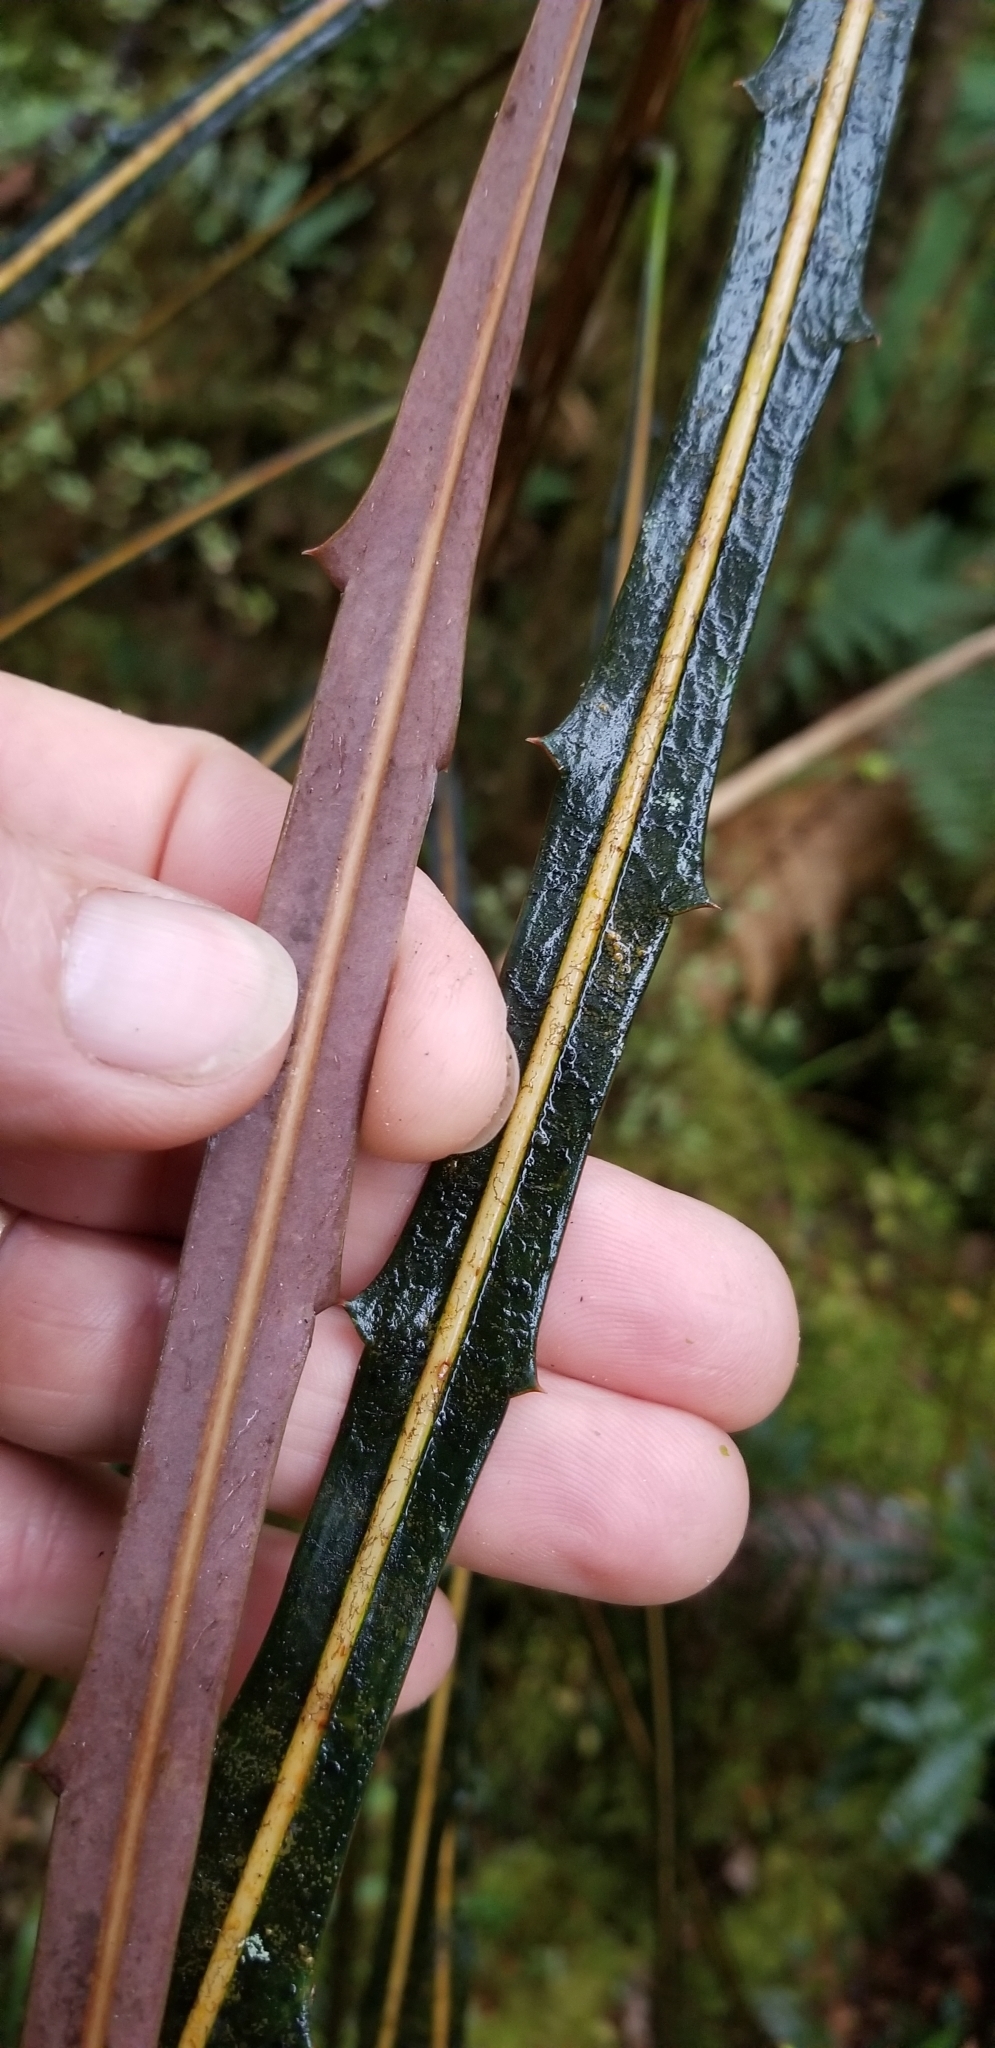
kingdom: Plantae
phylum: Tracheophyta
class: Magnoliopsida
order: Apiales
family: Araliaceae
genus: Pseudopanax
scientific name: Pseudopanax crassifolius
